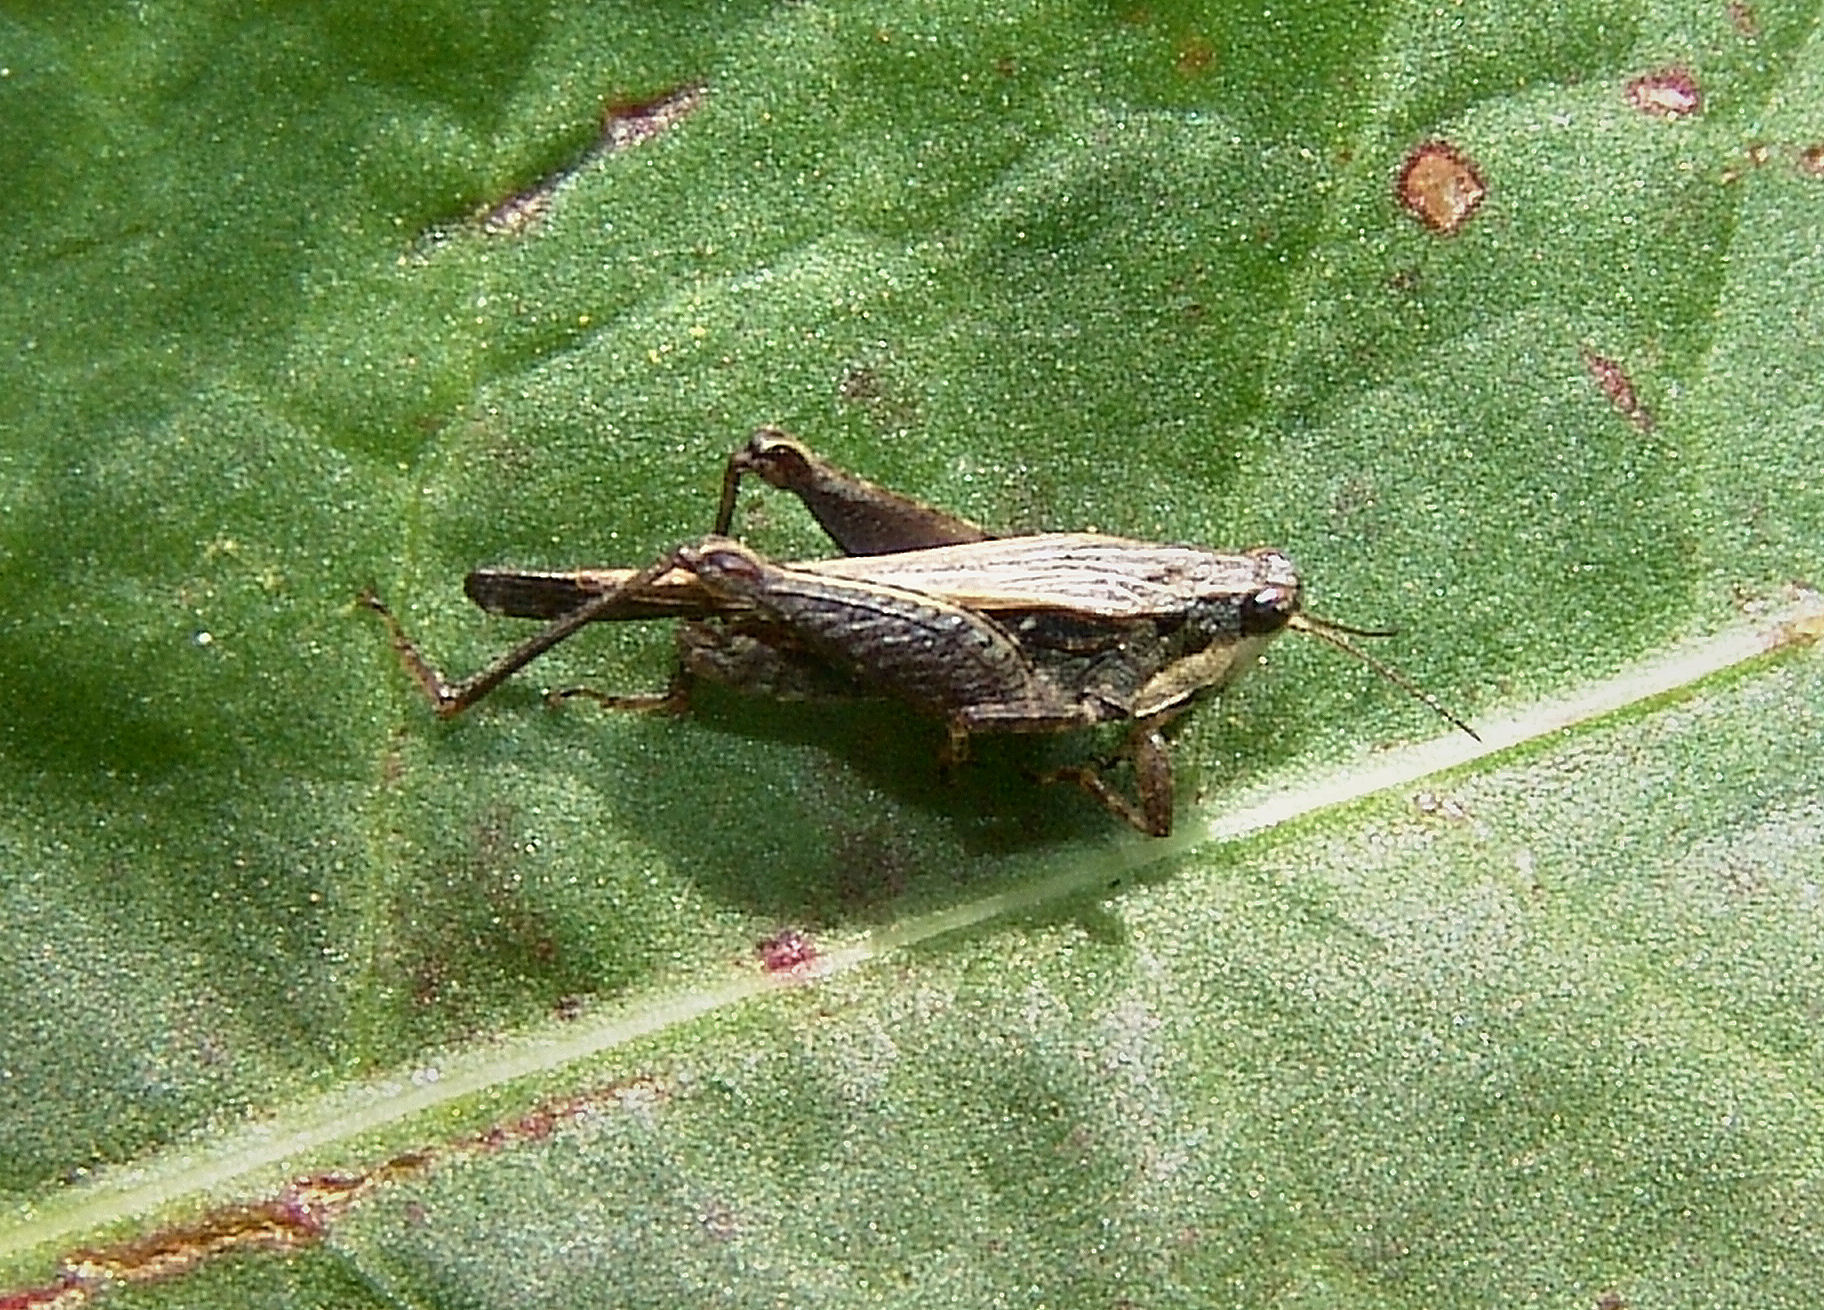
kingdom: Animalia
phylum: Arthropoda
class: Insecta
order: Orthoptera
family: Tetrigidae
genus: Tettigidea
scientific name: Tettigidea laterale
